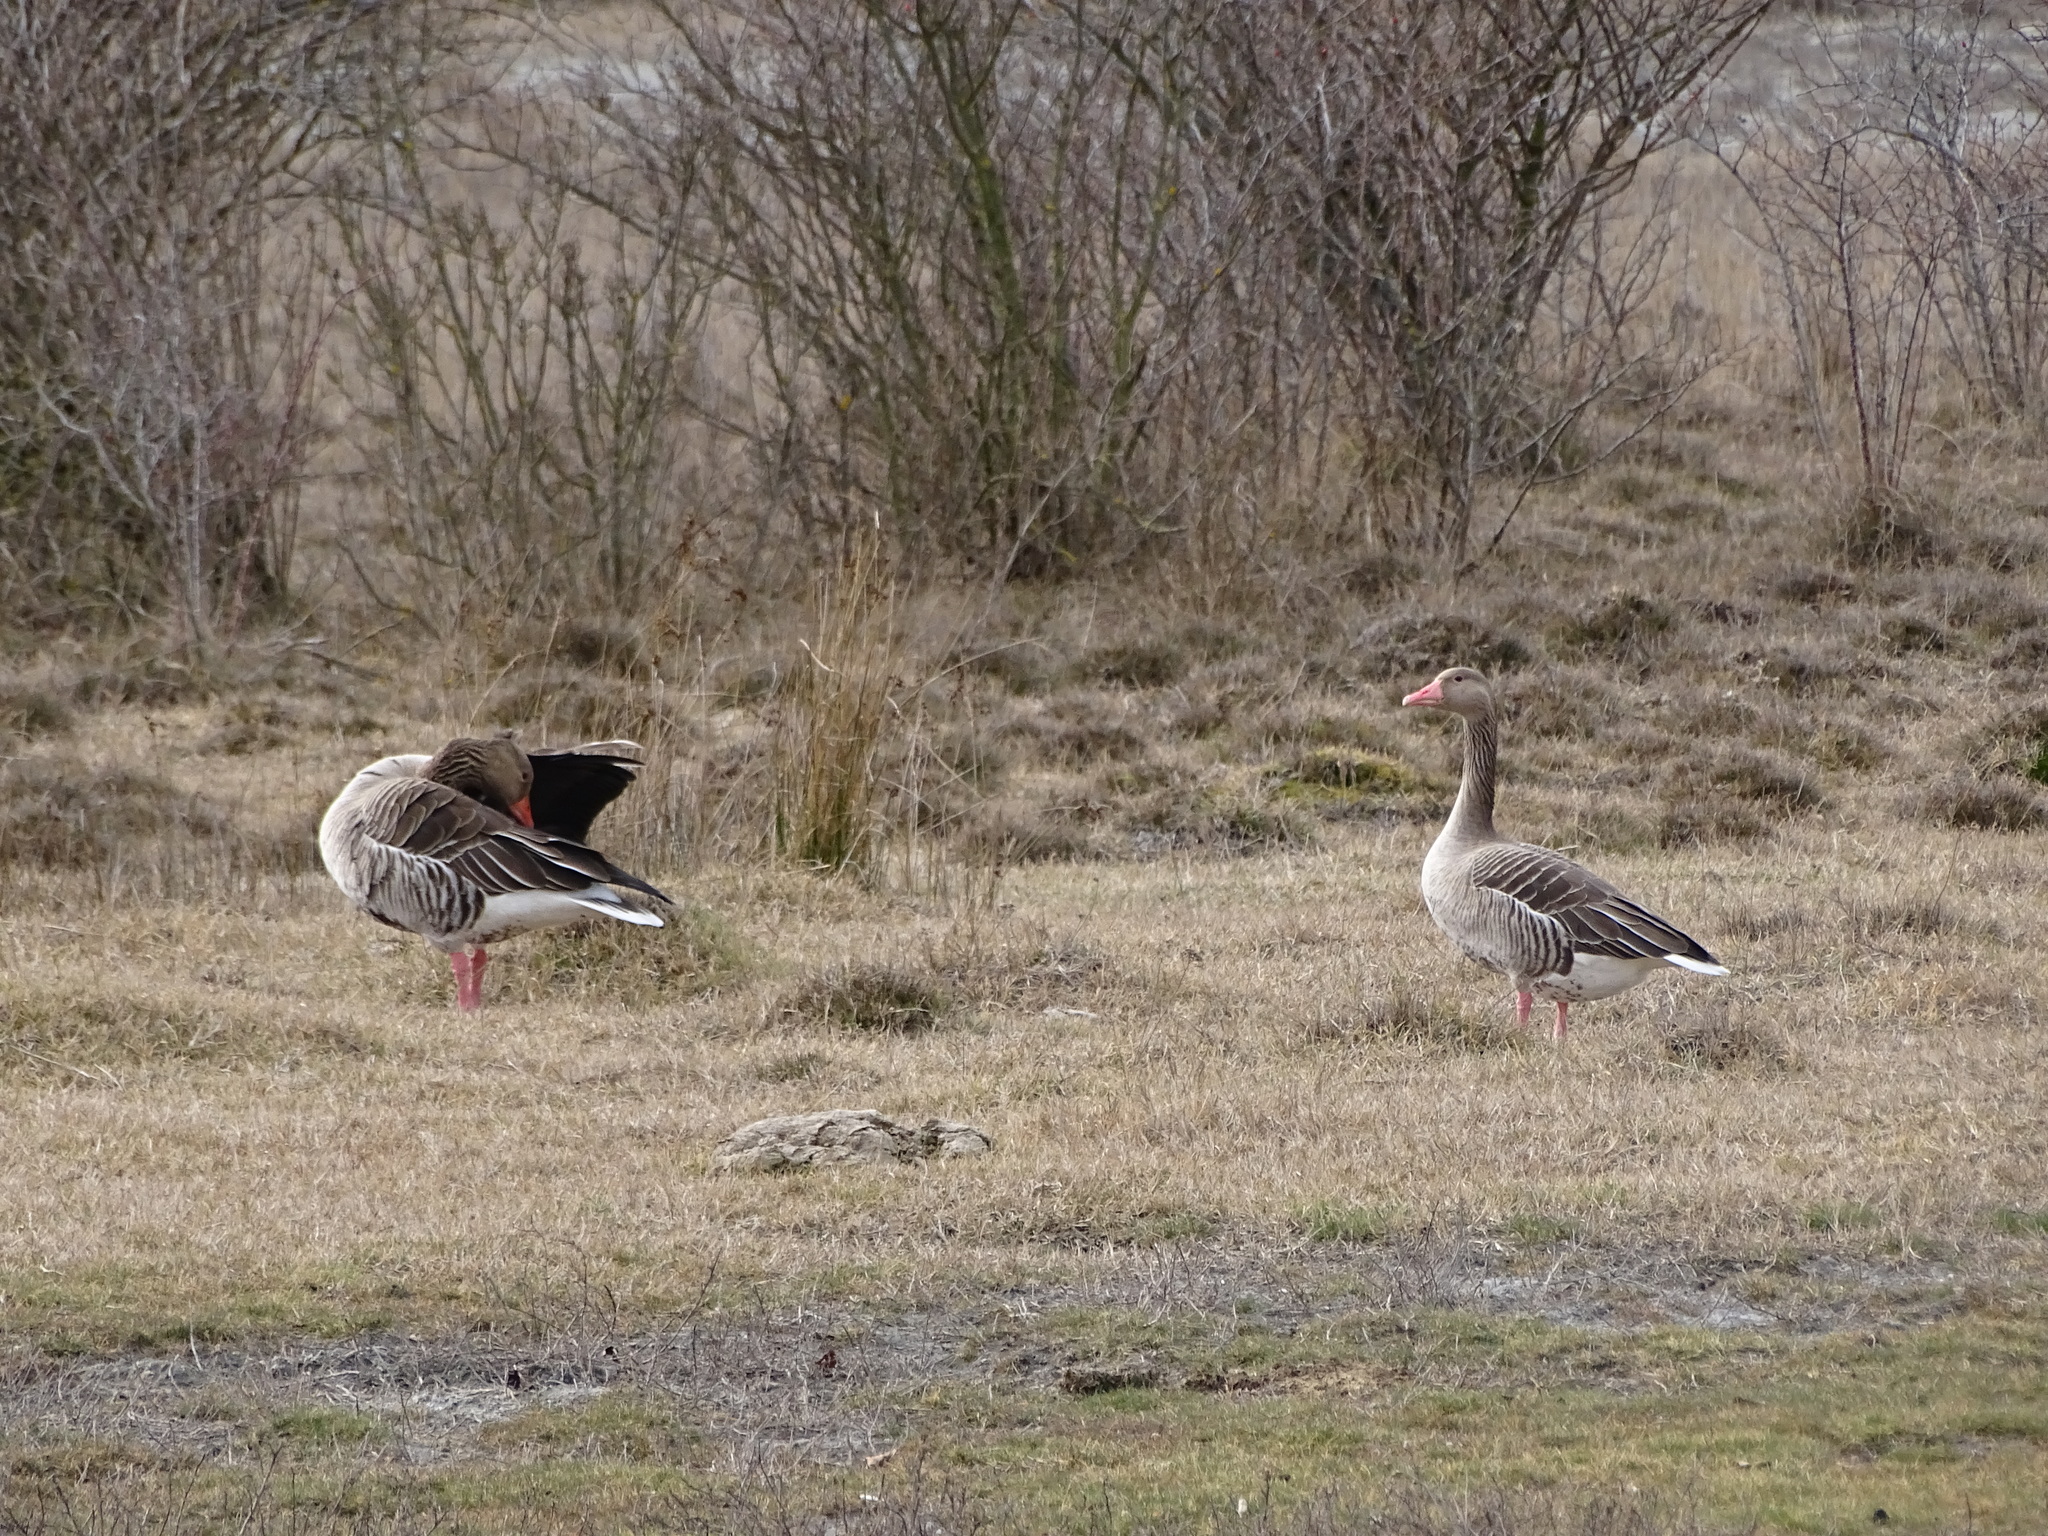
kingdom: Animalia
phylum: Chordata
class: Aves
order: Anseriformes
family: Anatidae
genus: Anser
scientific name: Anser anser
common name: Greylag goose
